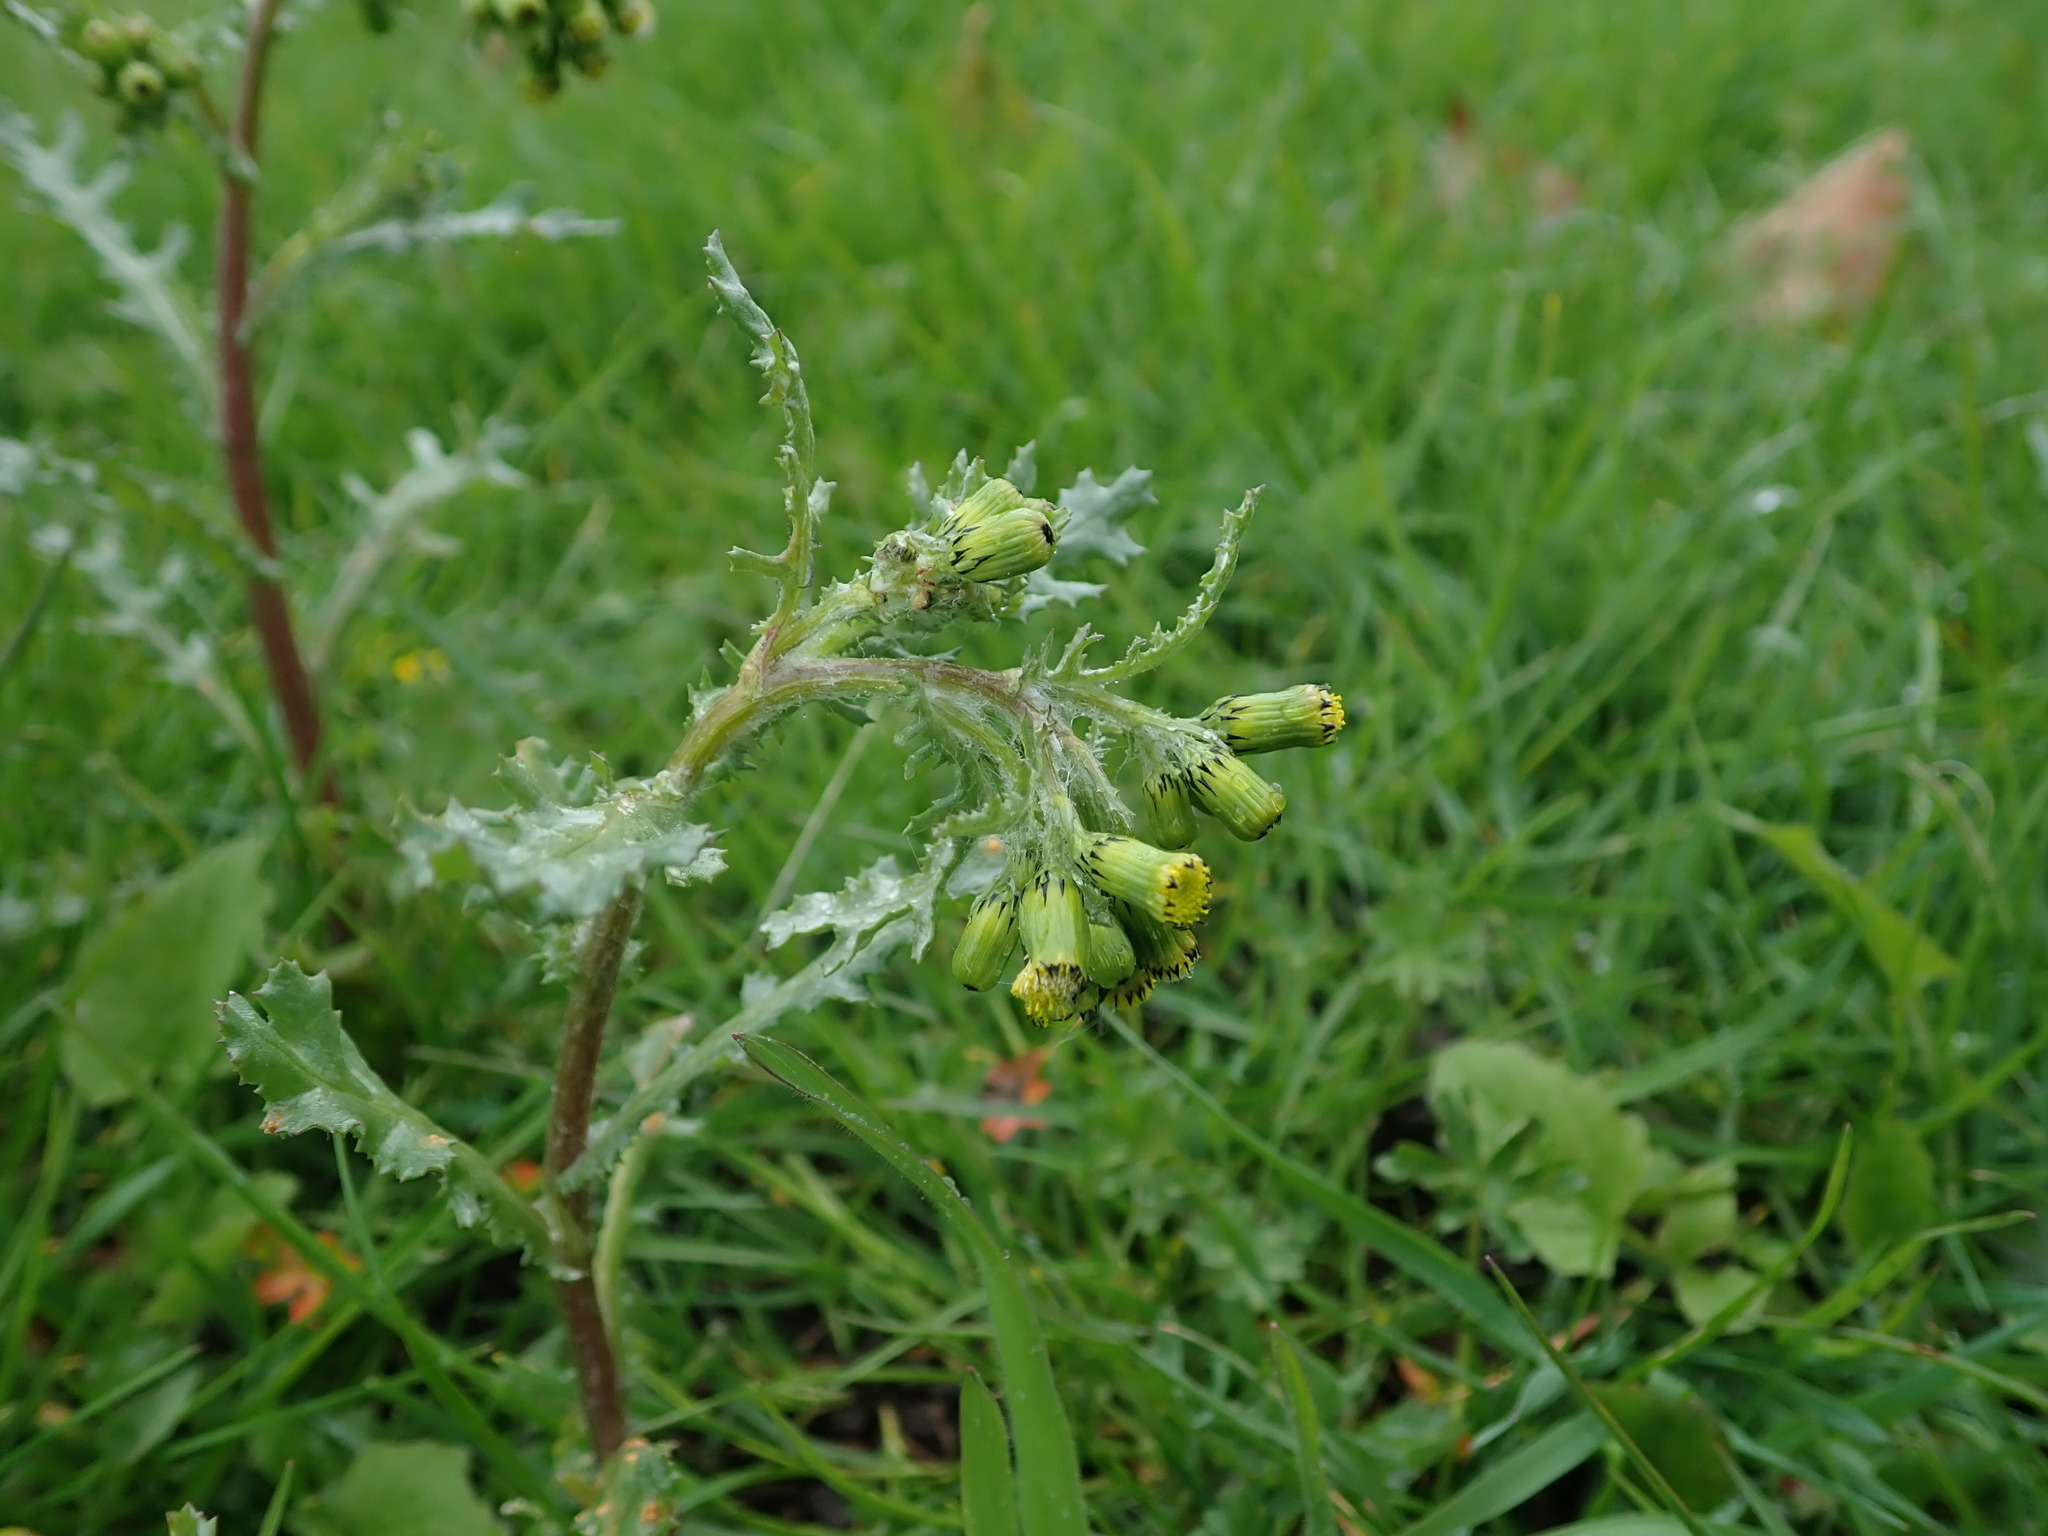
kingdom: Plantae
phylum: Tracheophyta
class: Magnoliopsida
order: Asterales
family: Asteraceae
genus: Senecio
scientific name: Senecio vulgaris
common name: Old-man-in-the-spring
